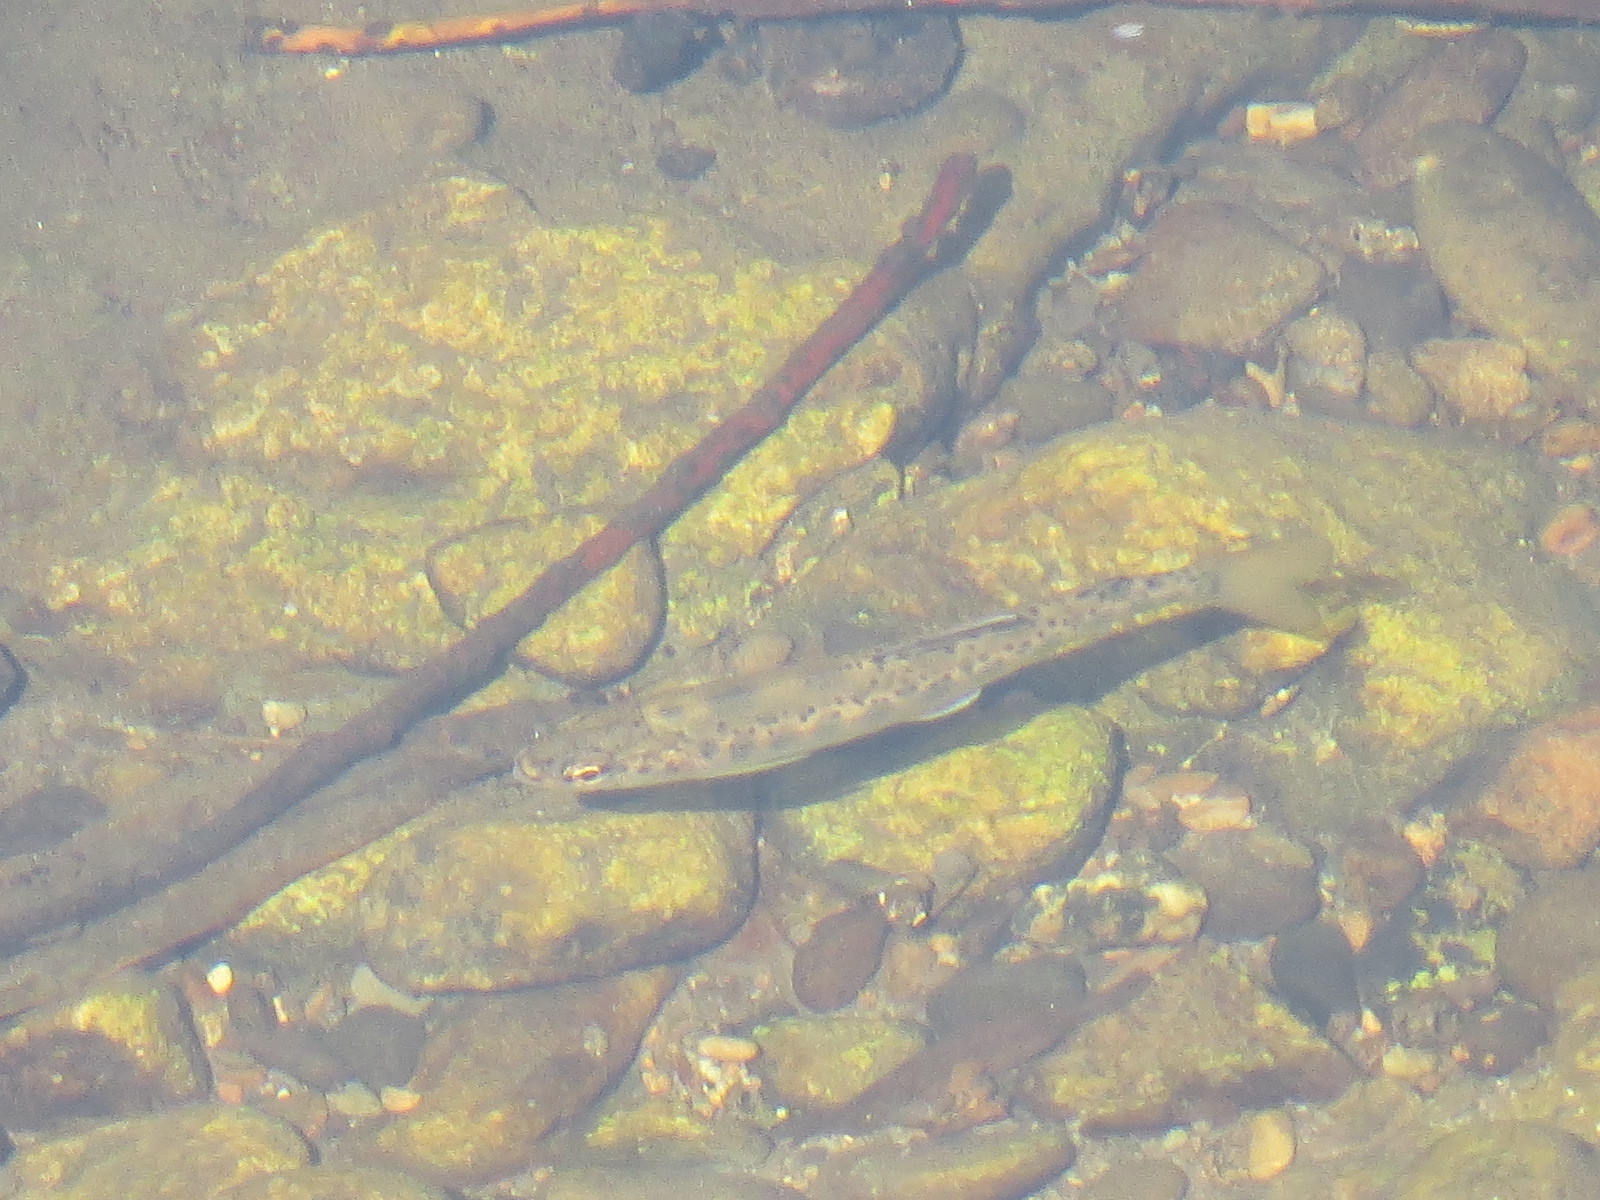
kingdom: Animalia
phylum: Chordata
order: Salmoniformes
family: Salmonidae
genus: Oncorhynchus
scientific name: Oncorhynchus mykiss
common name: Rainbow trout
